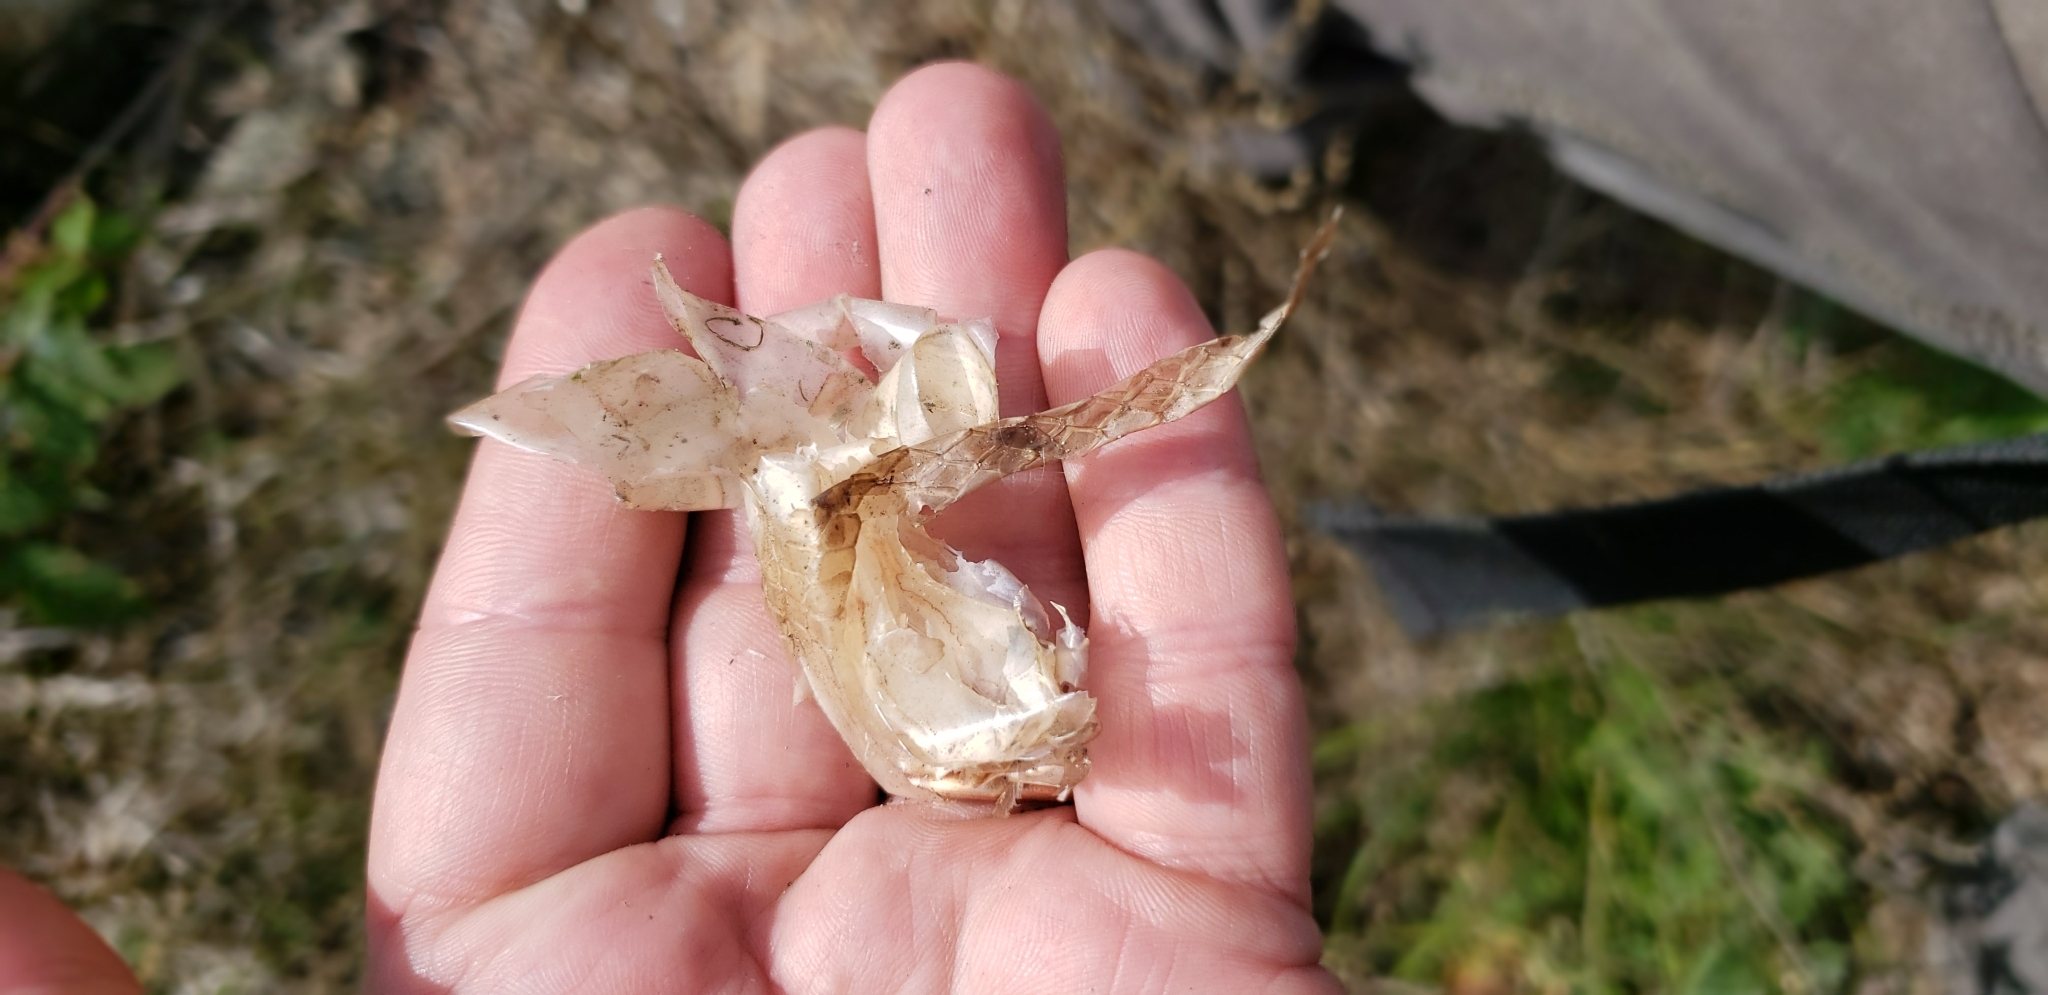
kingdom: Animalia
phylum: Chordata
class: Squamata
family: Colubridae
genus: Coluber
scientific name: Coluber constrictor
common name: Eastern racer
